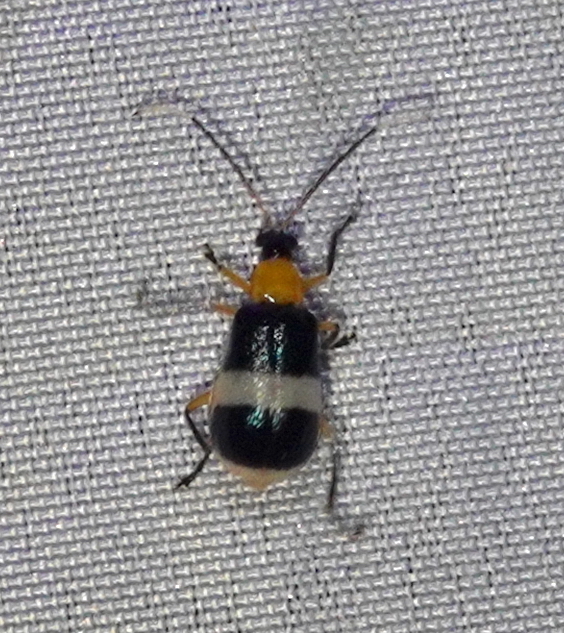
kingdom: Animalia
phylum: Arthropoda
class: Insecta
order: Coleoptera
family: Chrysomelidae
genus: Diabrotica
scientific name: Diabrotica
